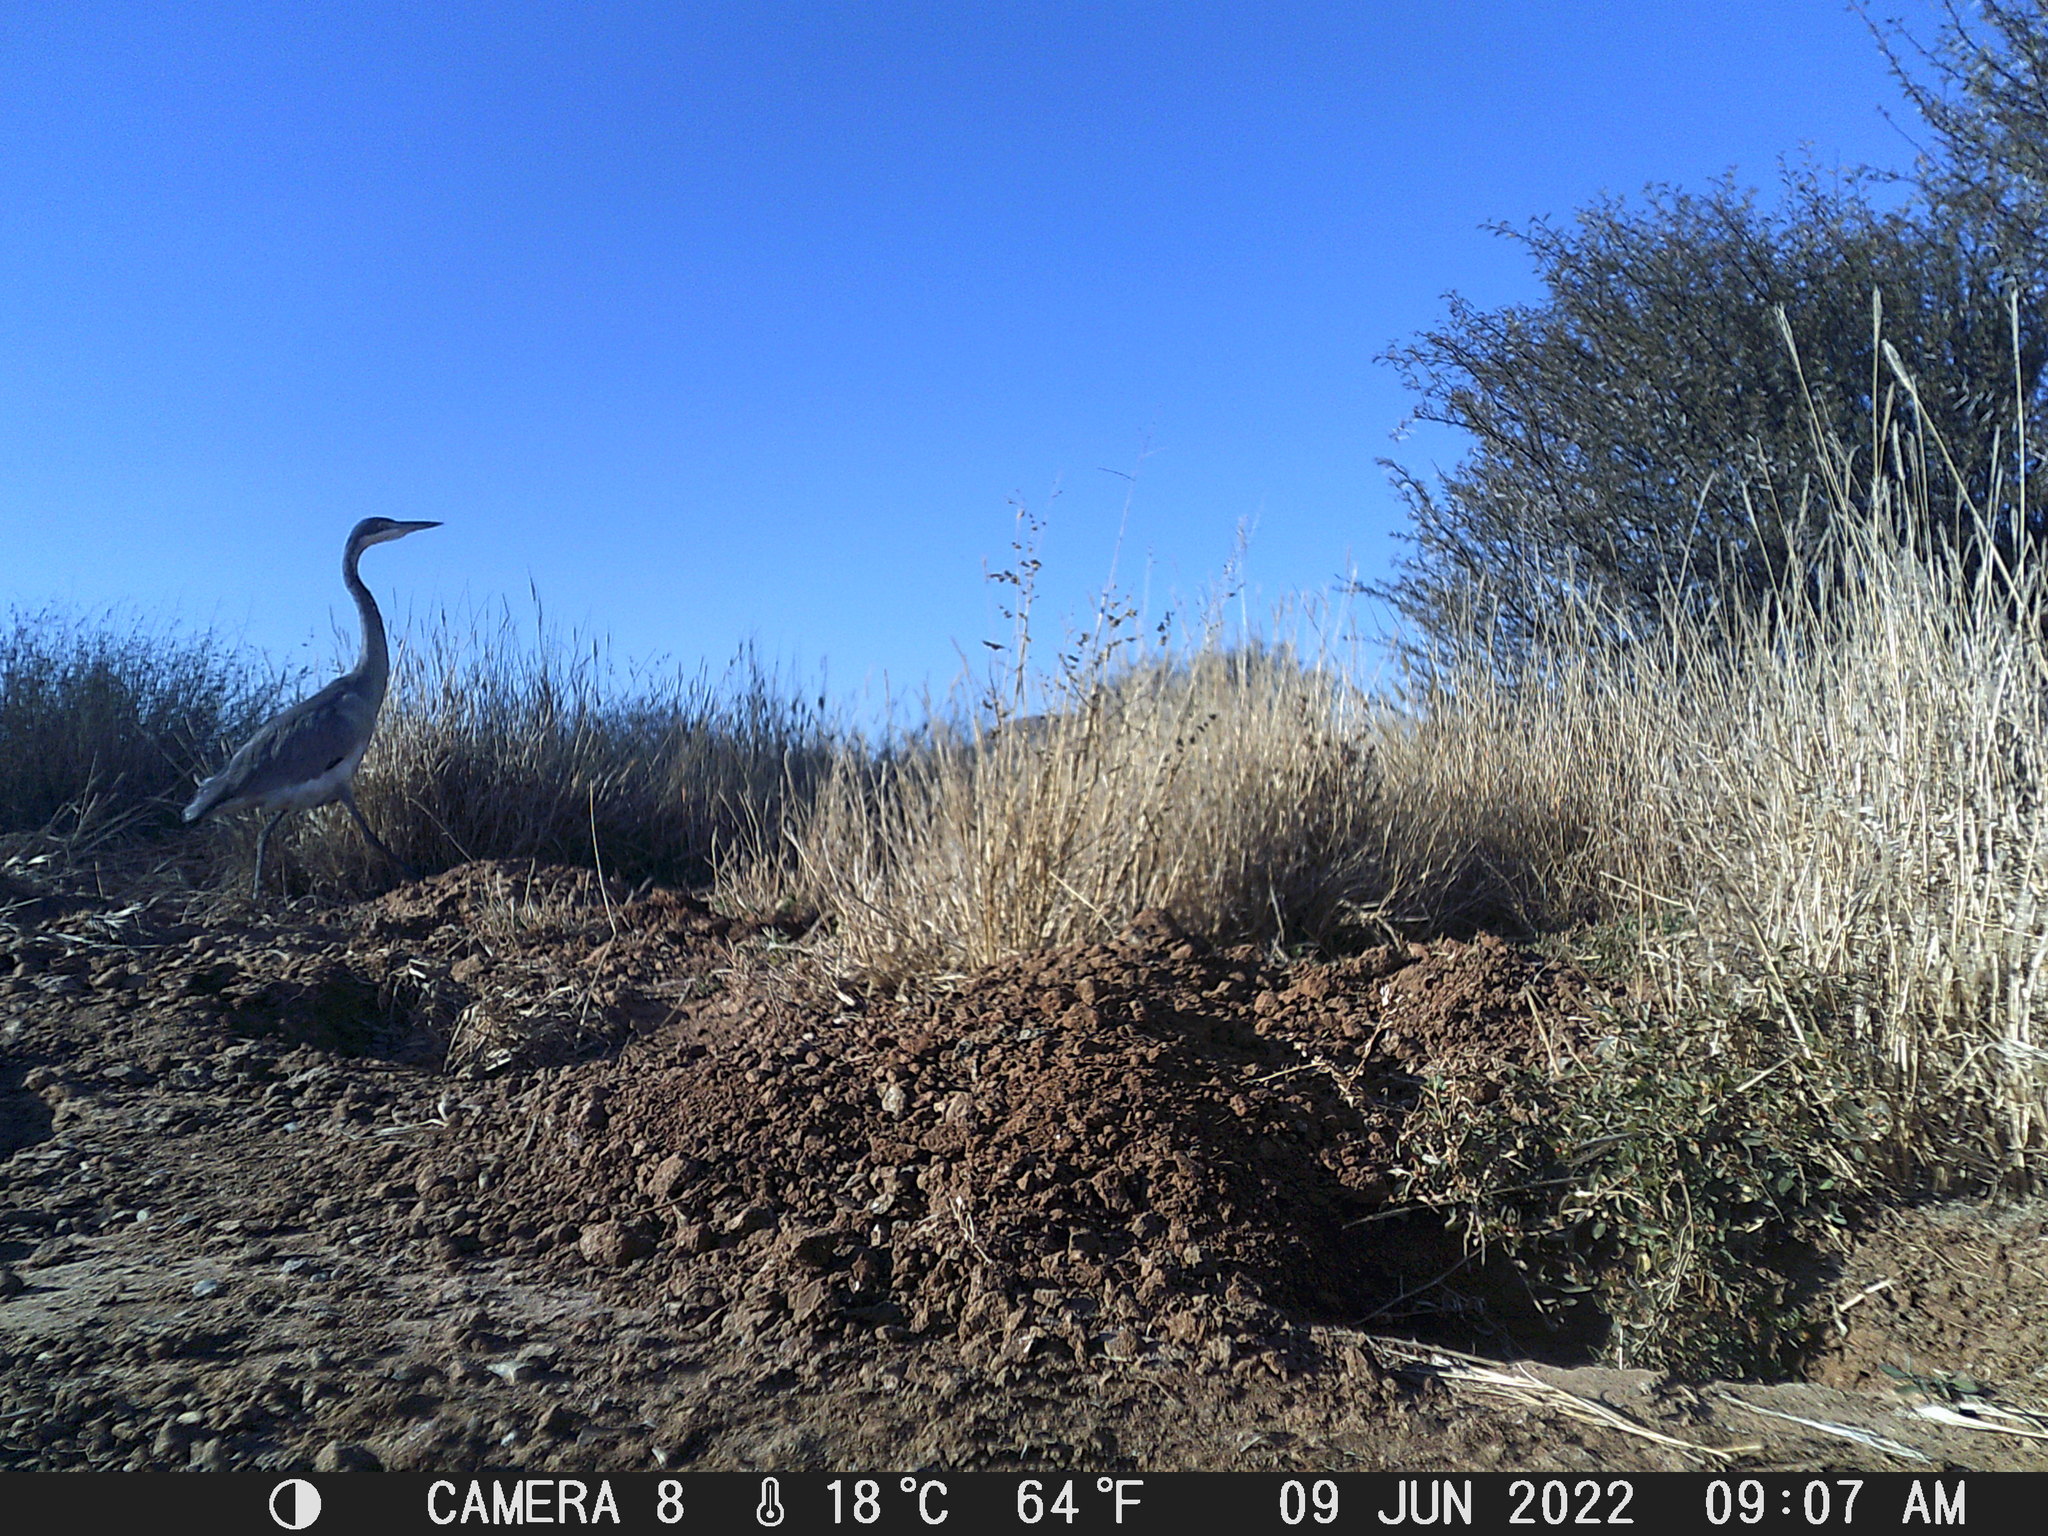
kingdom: Animalia
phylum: Chordata
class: Aves
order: Pelecaniformes
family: Ardeidae
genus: Ardea
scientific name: Ardea melanocephala
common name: Black-headed heron
